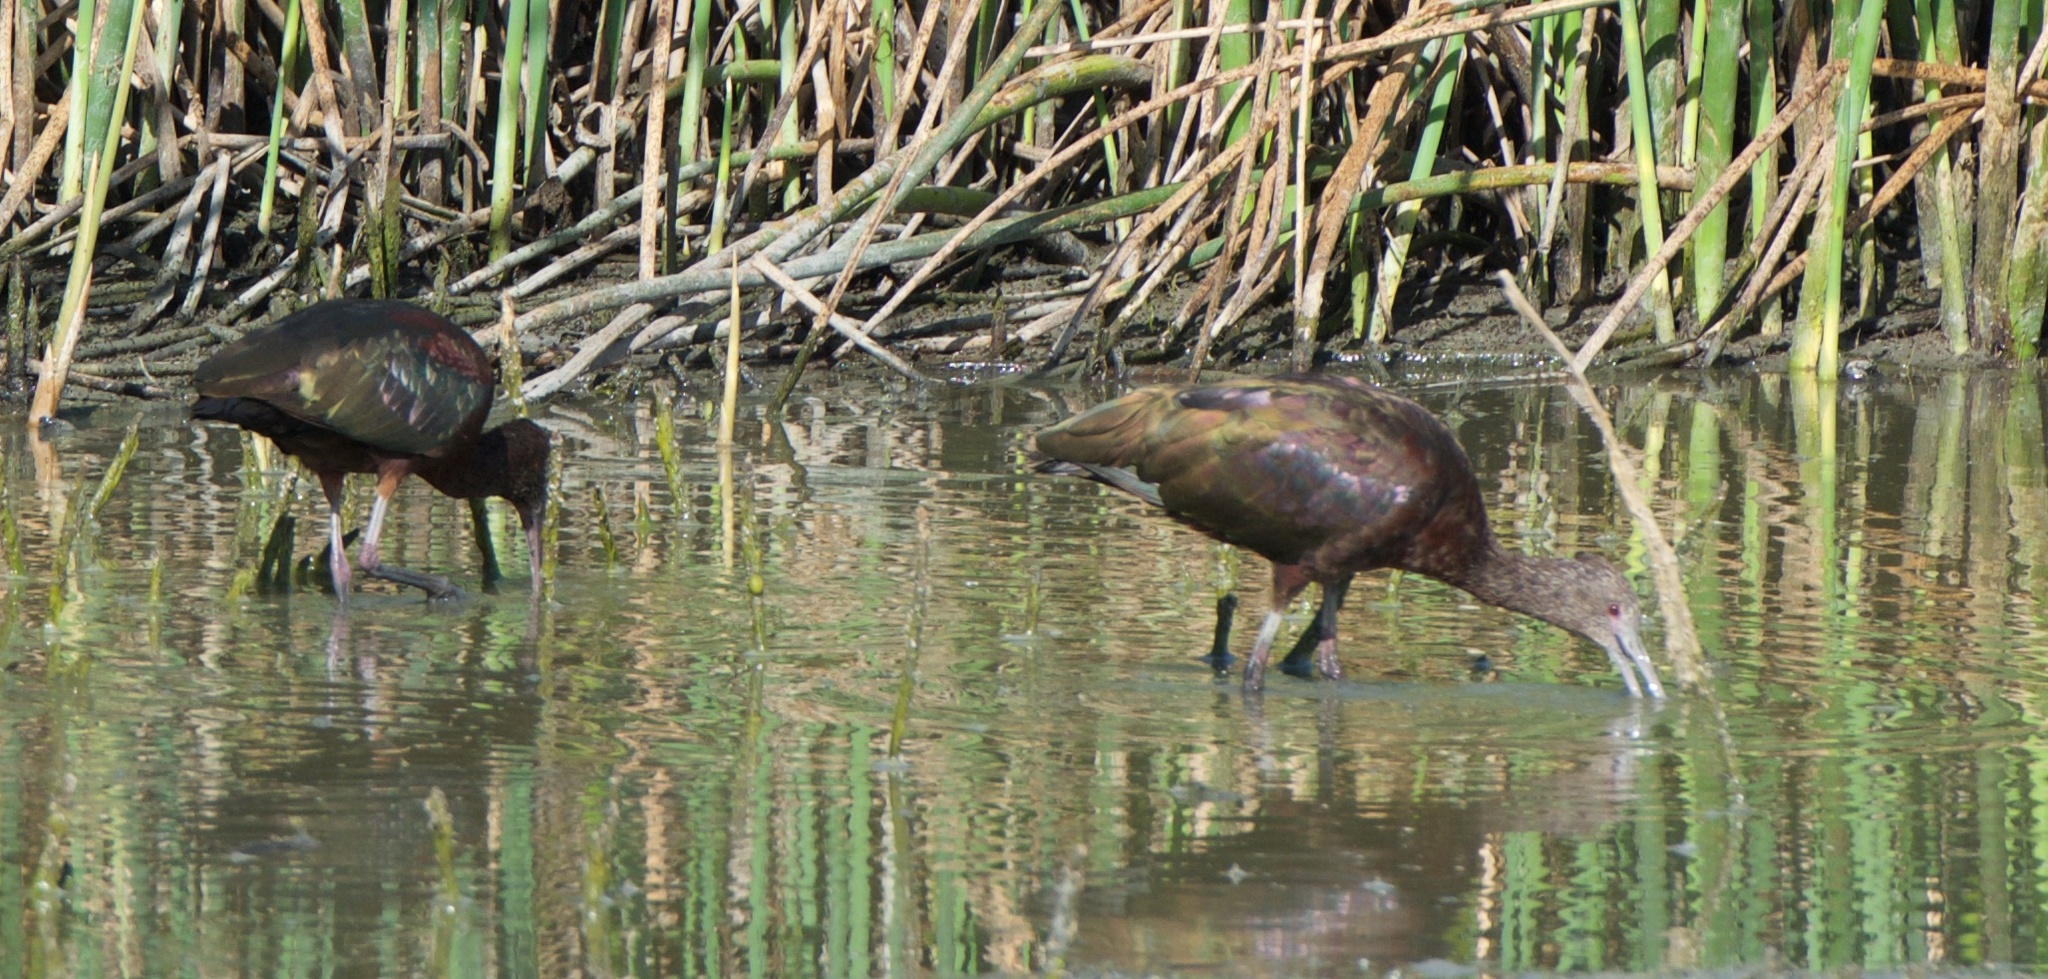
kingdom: Animalia
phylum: Chordata
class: Aves
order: Pelecaniformes
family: Threskiornithidae
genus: Plegadis
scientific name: Plegadis chihi
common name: White-faced ibis
